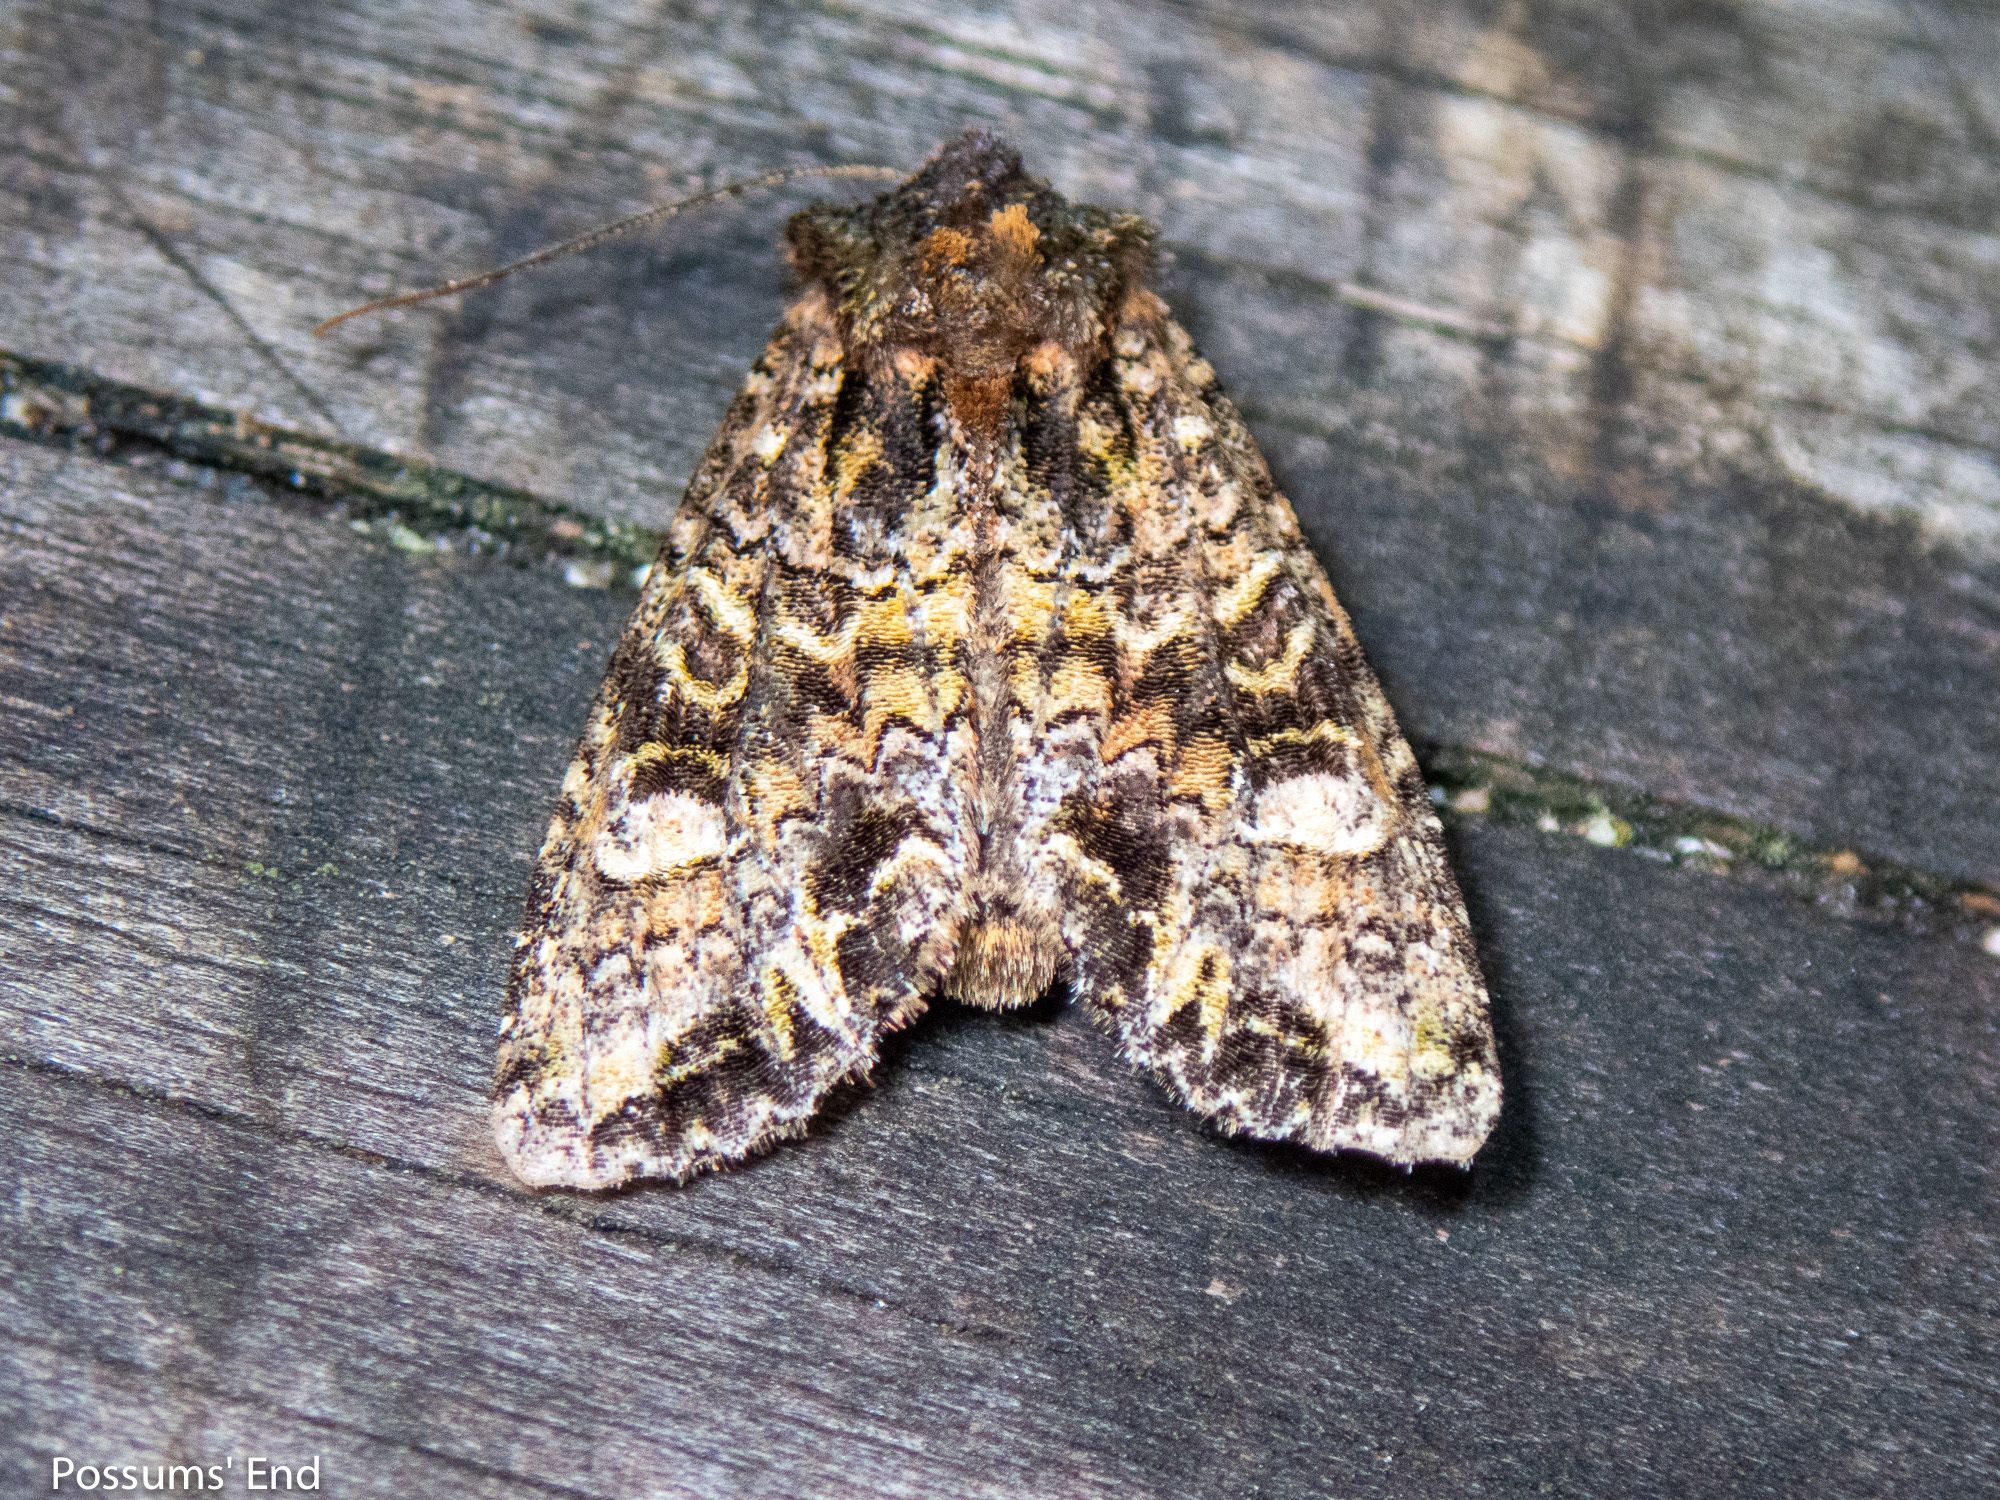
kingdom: Animalia
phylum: Arthropoda
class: Insecta
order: Lepidoptera
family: Noctuidae
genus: Ichneutica
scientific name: Ichneutica
